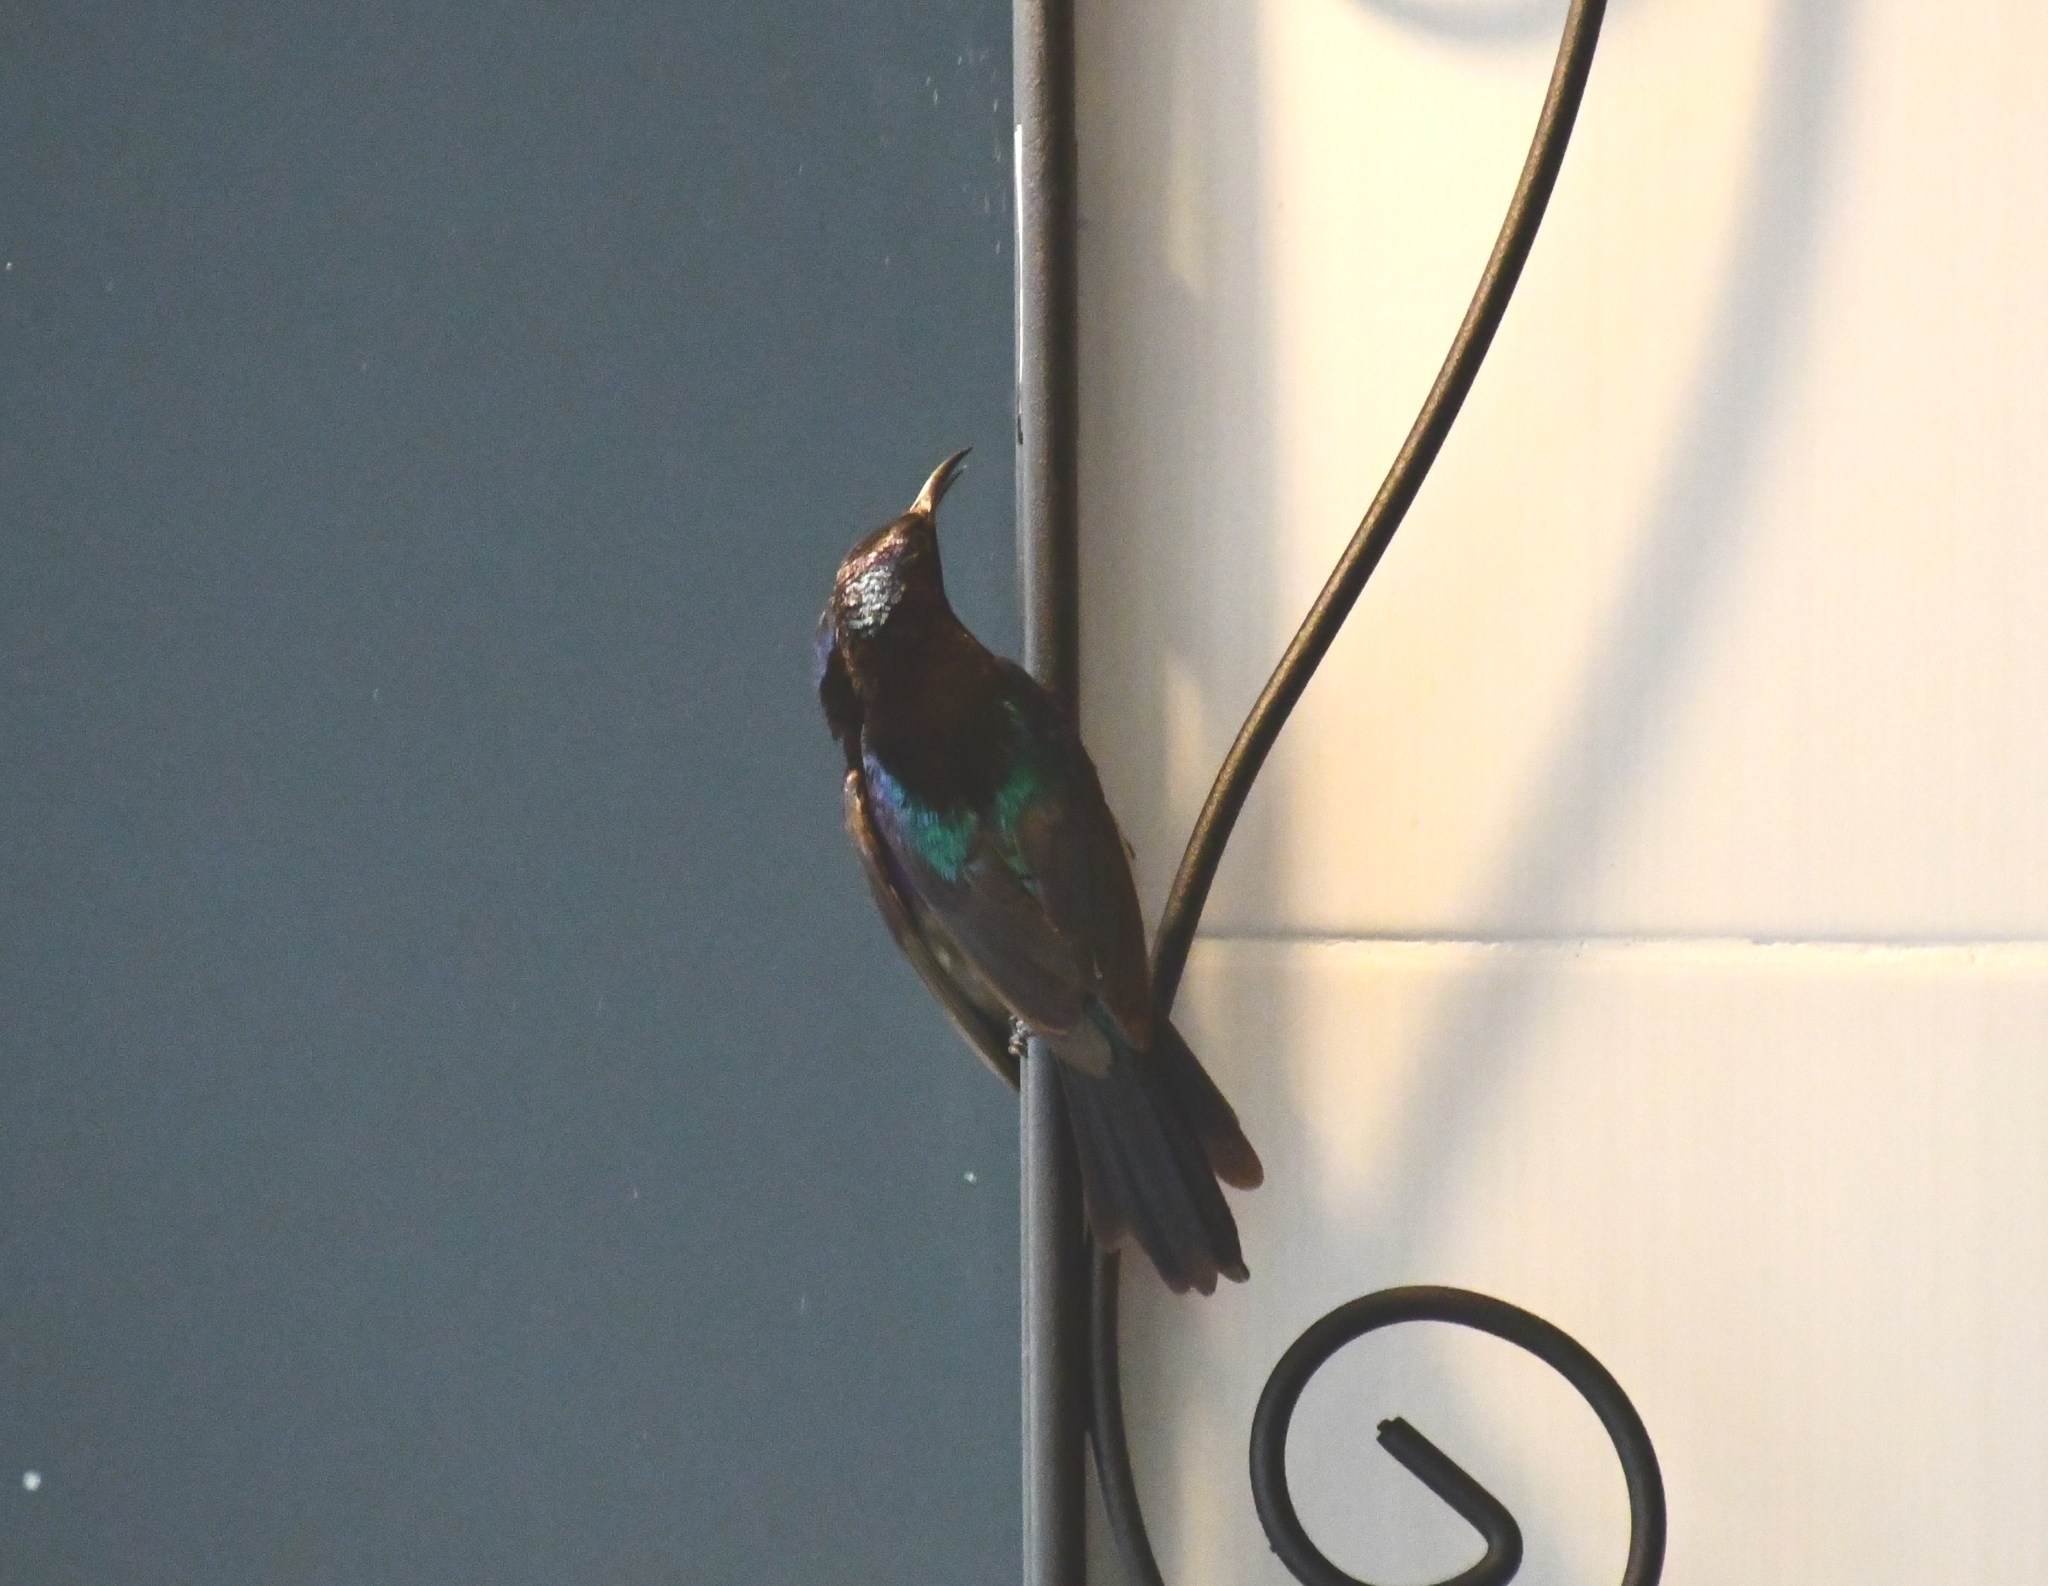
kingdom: Animalia
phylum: Chordata
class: Aves
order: Passeriformes
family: Nectariniidae
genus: Leptocoma
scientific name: Leptocoma calcostetha
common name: Copper-throated sunbird
